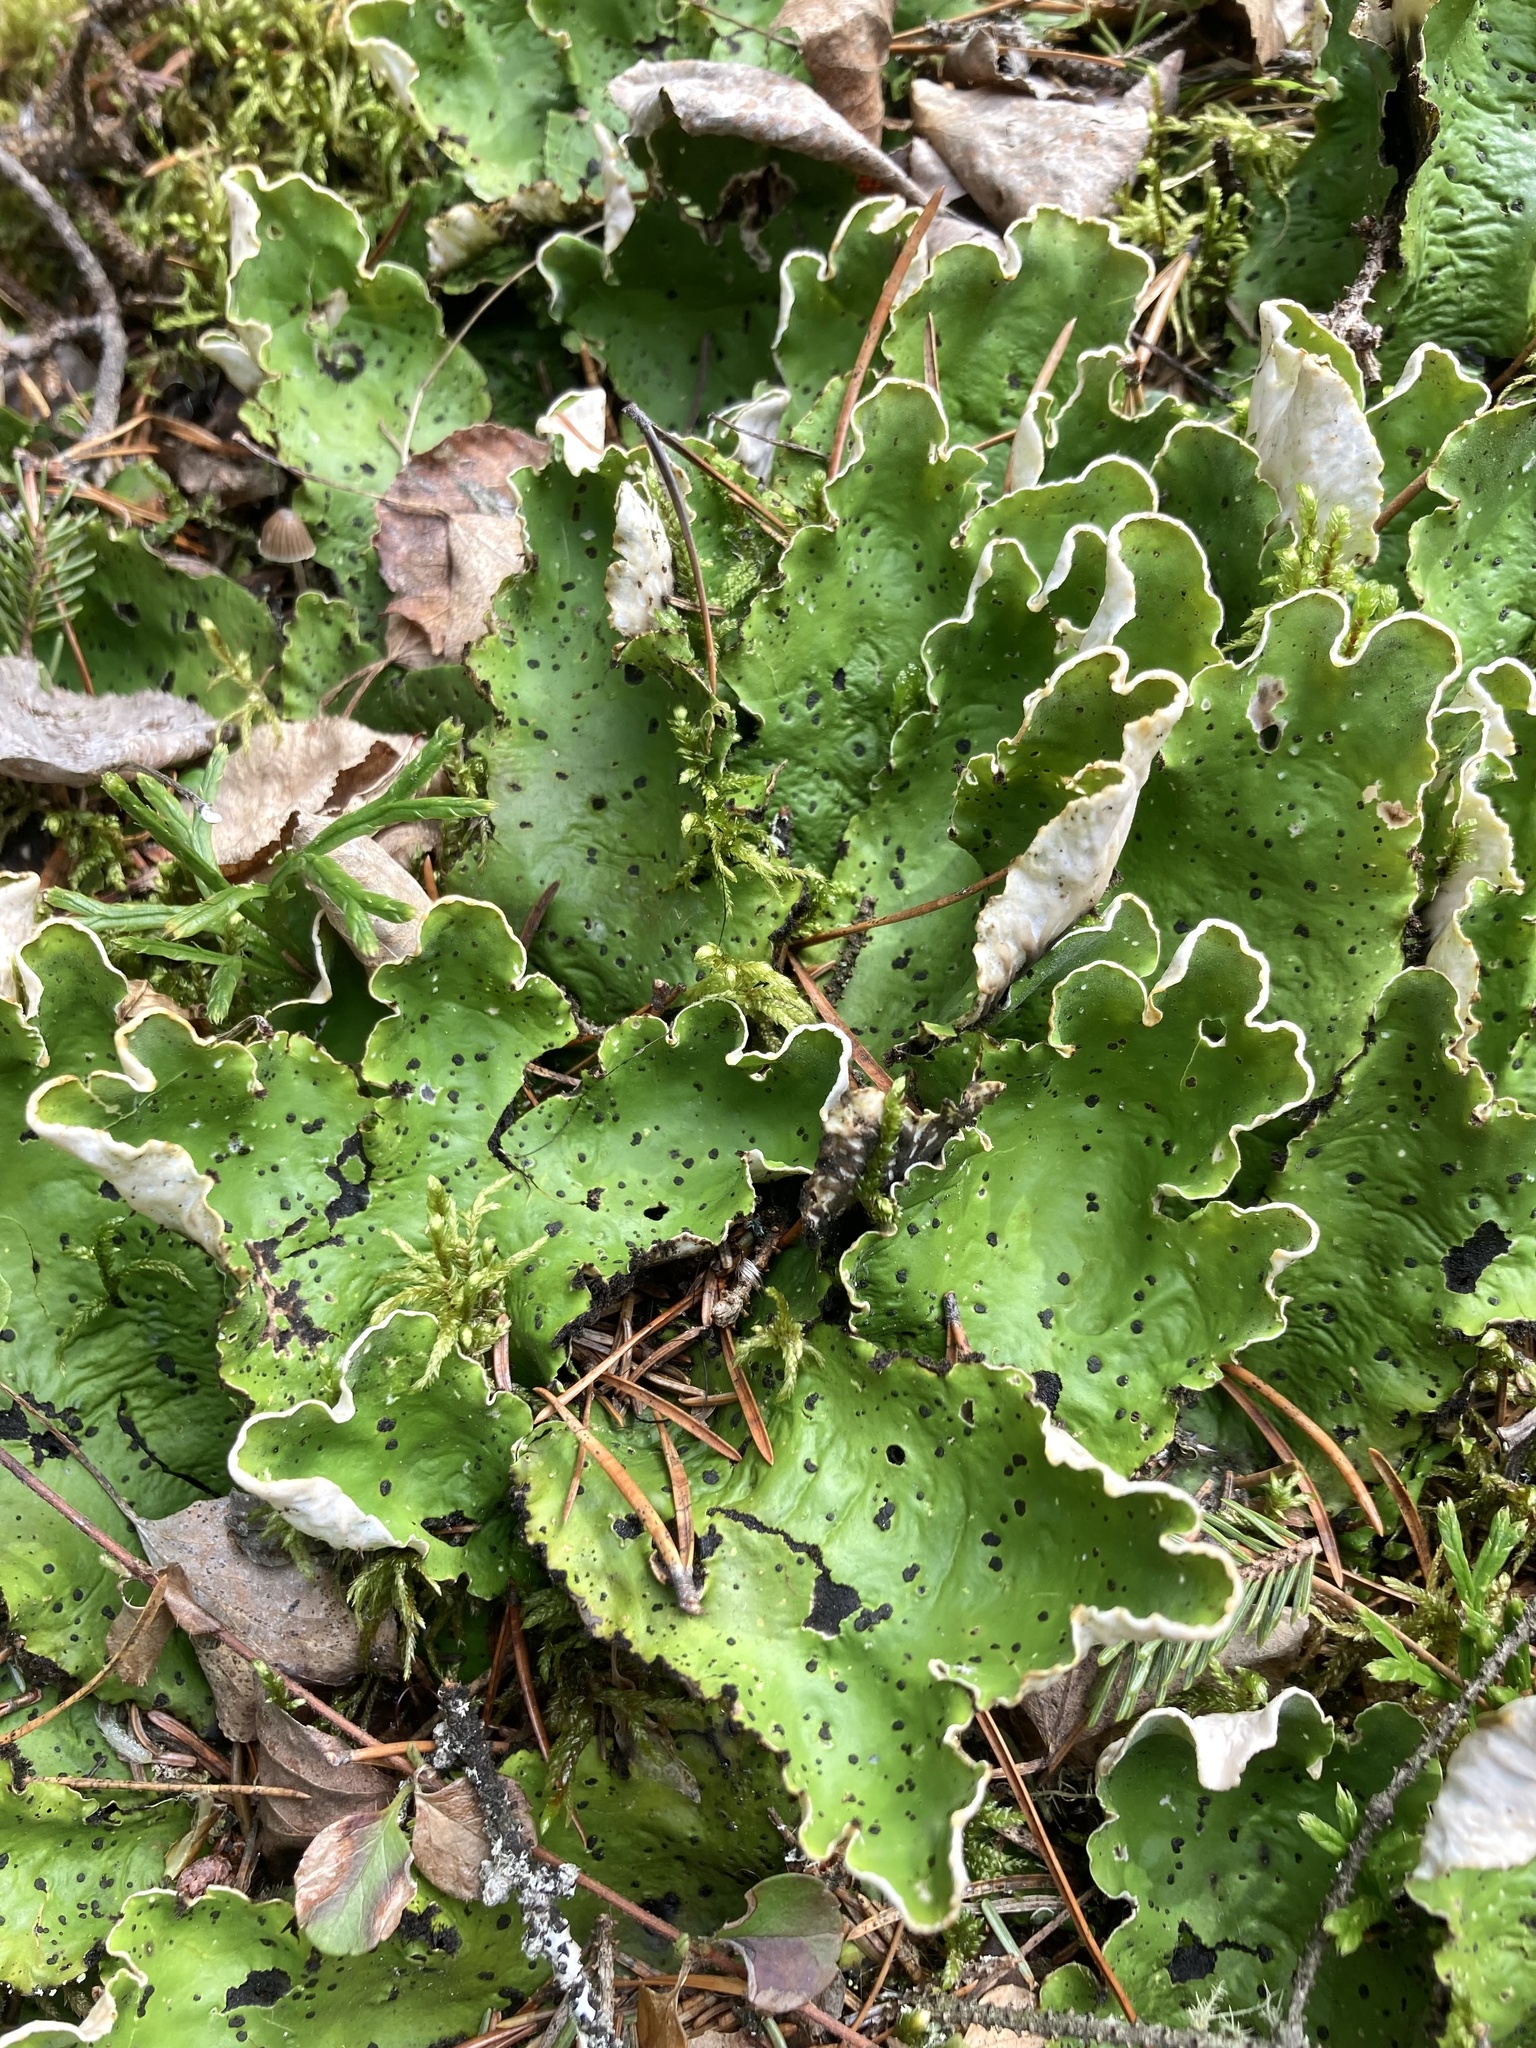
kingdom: Fungi
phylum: Ascomycota
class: Lecanoromycetes
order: Peltigerales
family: Peltigeraceae
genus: Peltigera
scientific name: Peltigera aphthosa
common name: Common freckle pelt lichen
